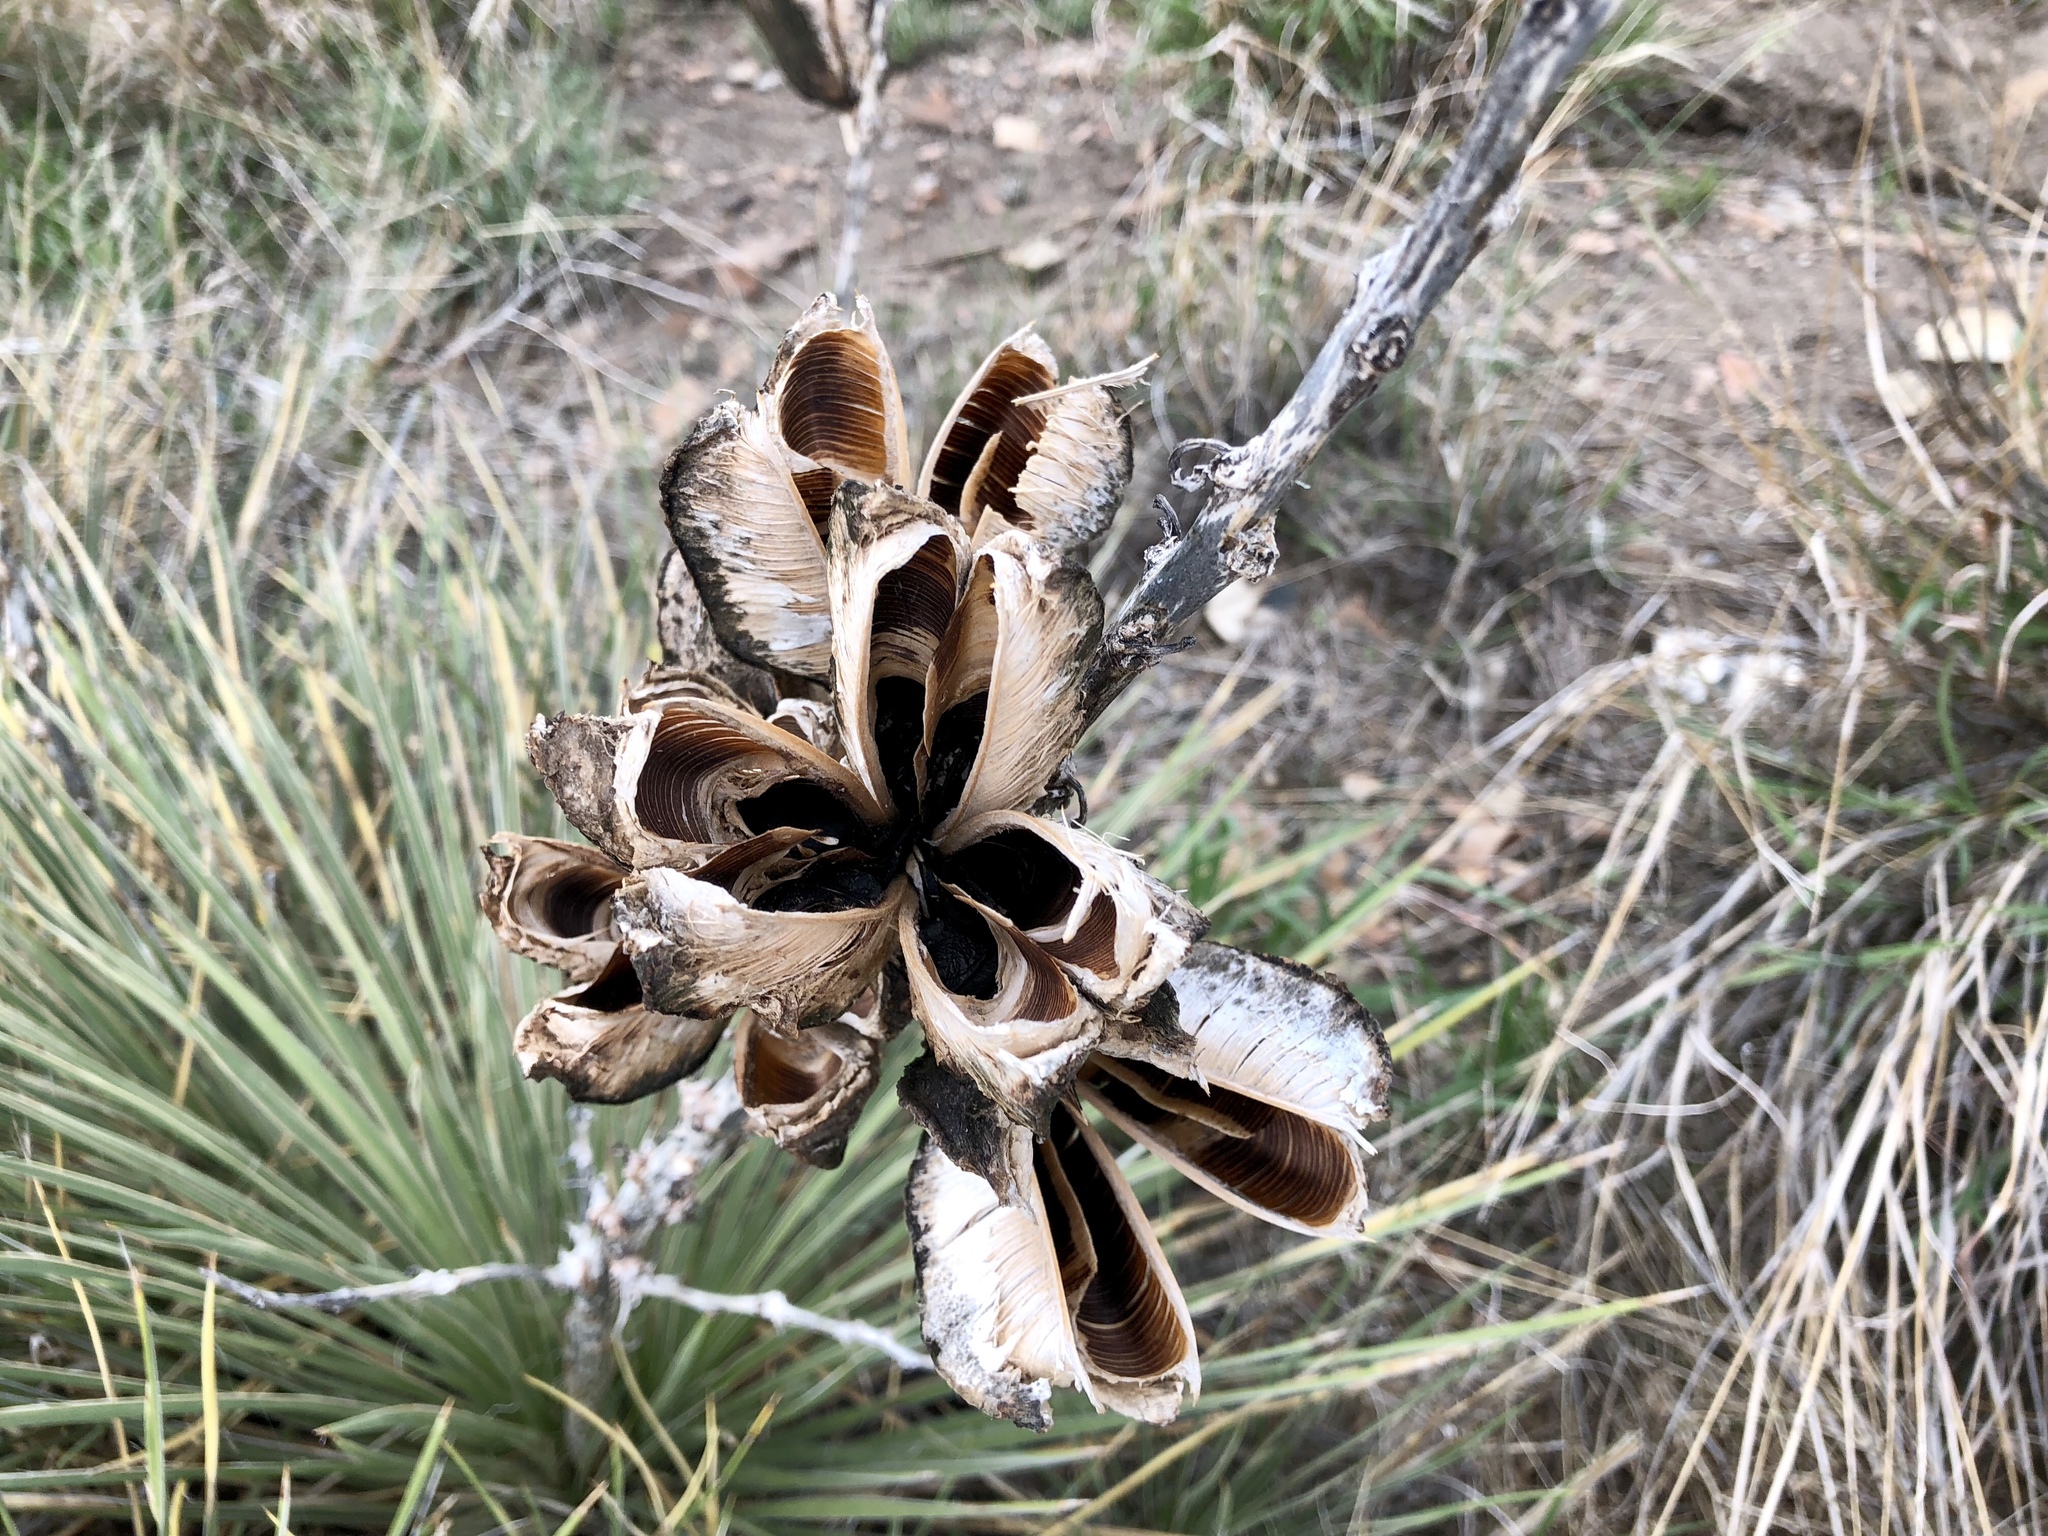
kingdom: Plantae
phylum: Tracheophyta
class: Liliopsida
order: Asparagales
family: Asparagaceae
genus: Yucca
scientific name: Yucca glauca
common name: Great plains yucca
